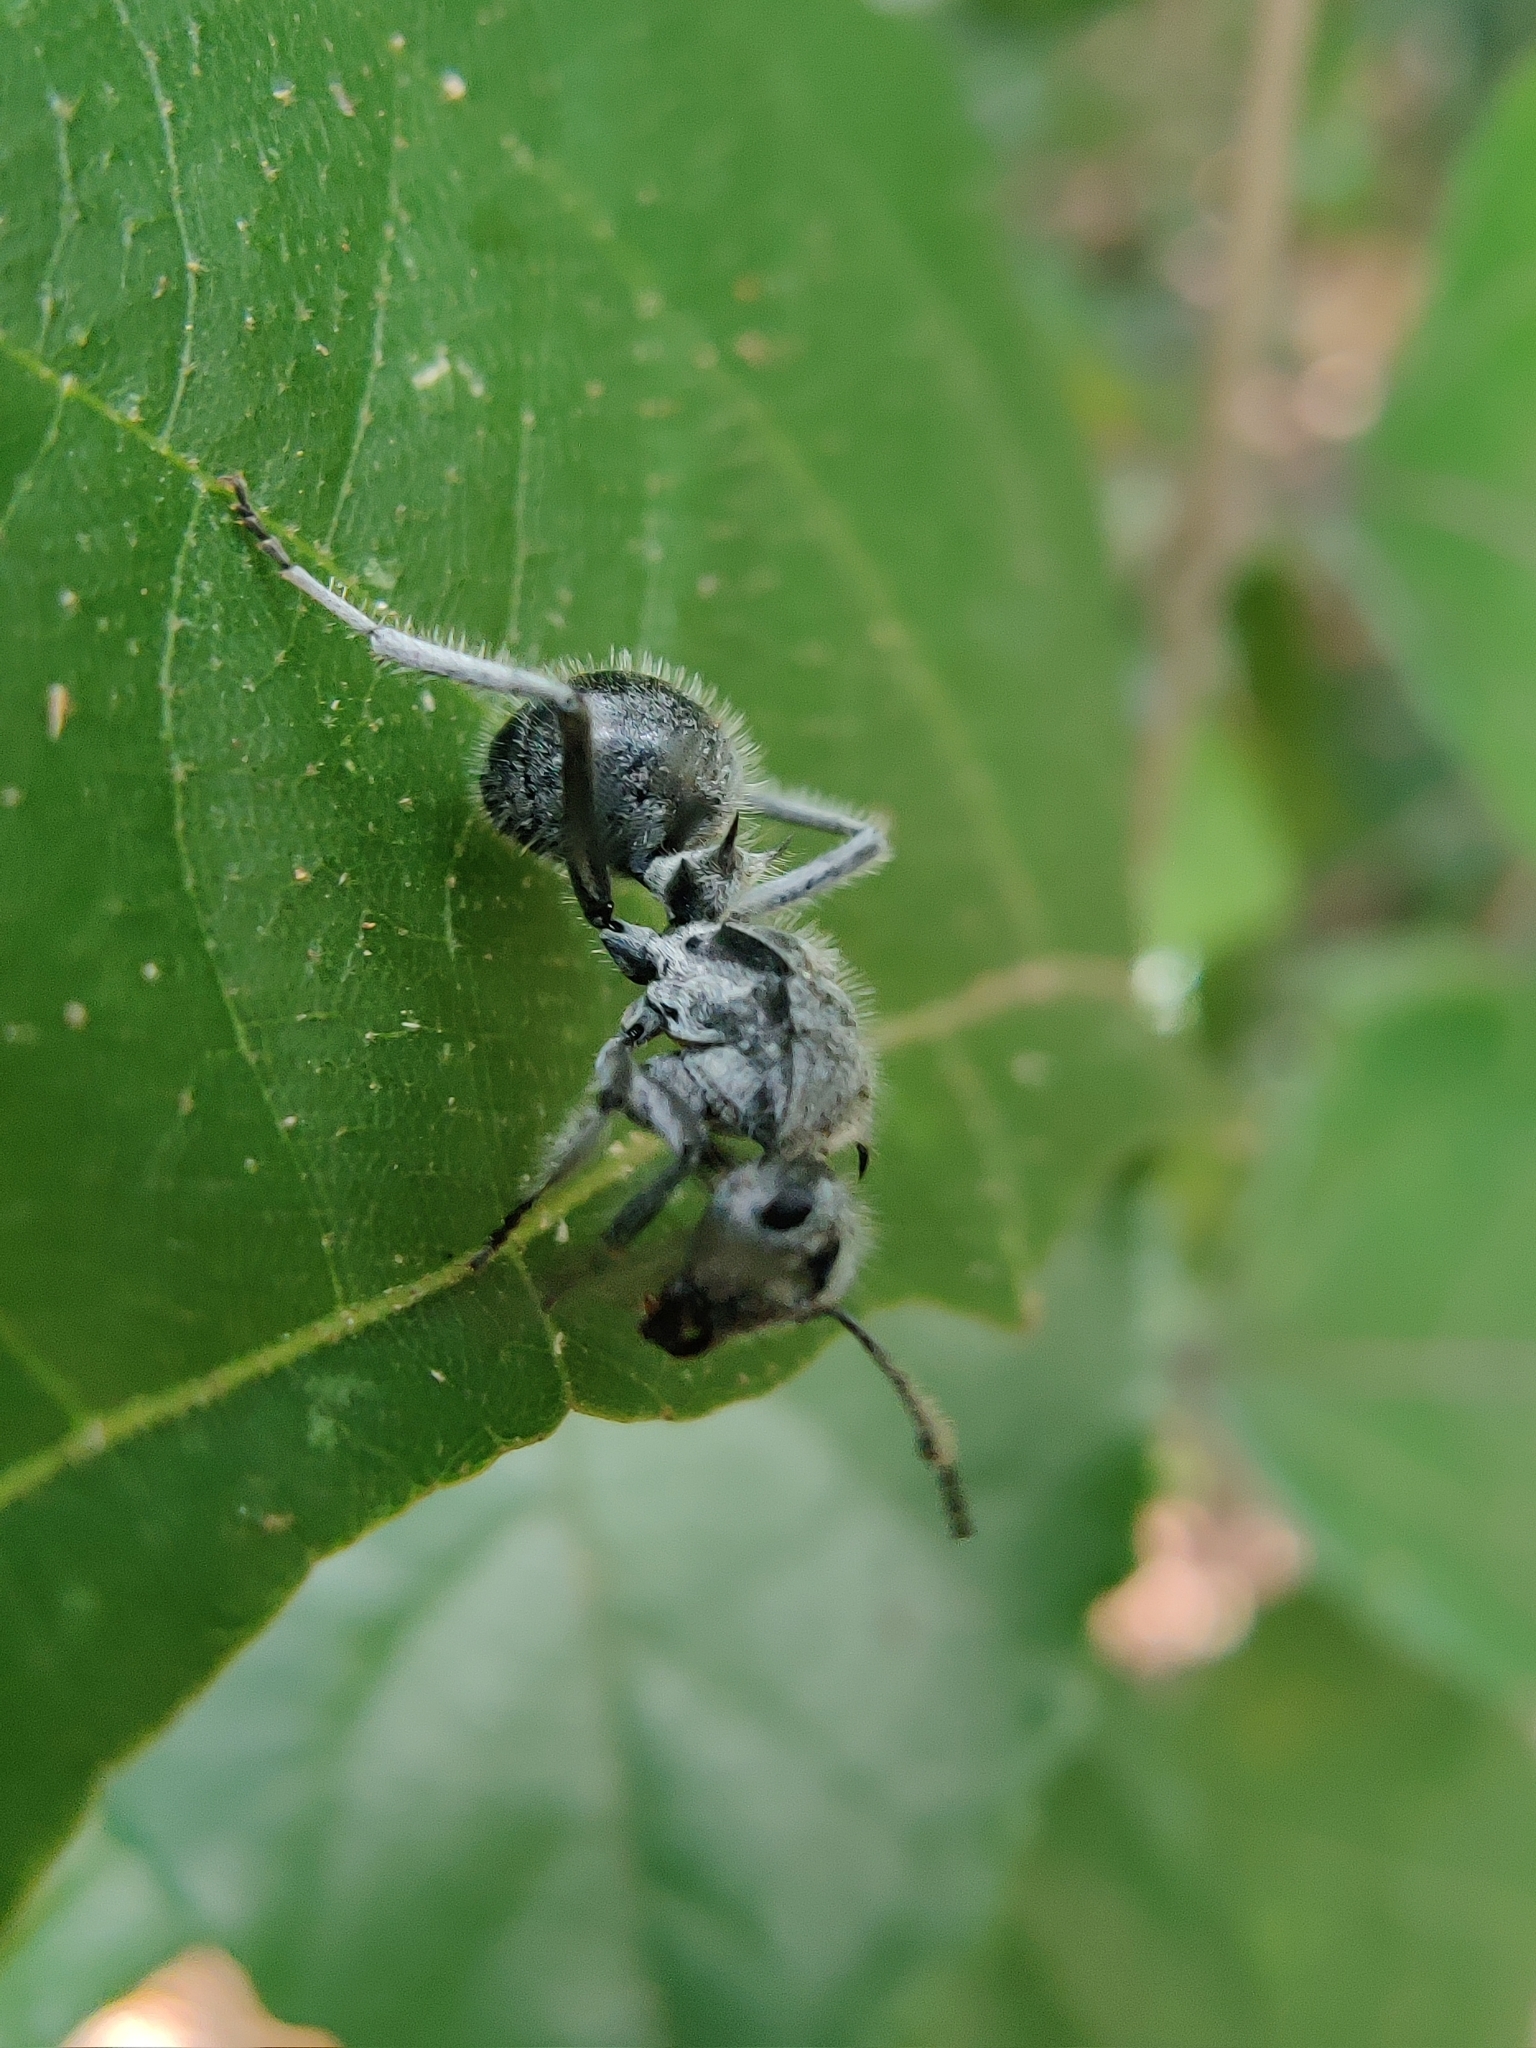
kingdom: Animalia
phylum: Arthropoda
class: Insecta
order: Hymenoptera
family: Formicidae
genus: Polyrhachis
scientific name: Polyrhachis medusa
